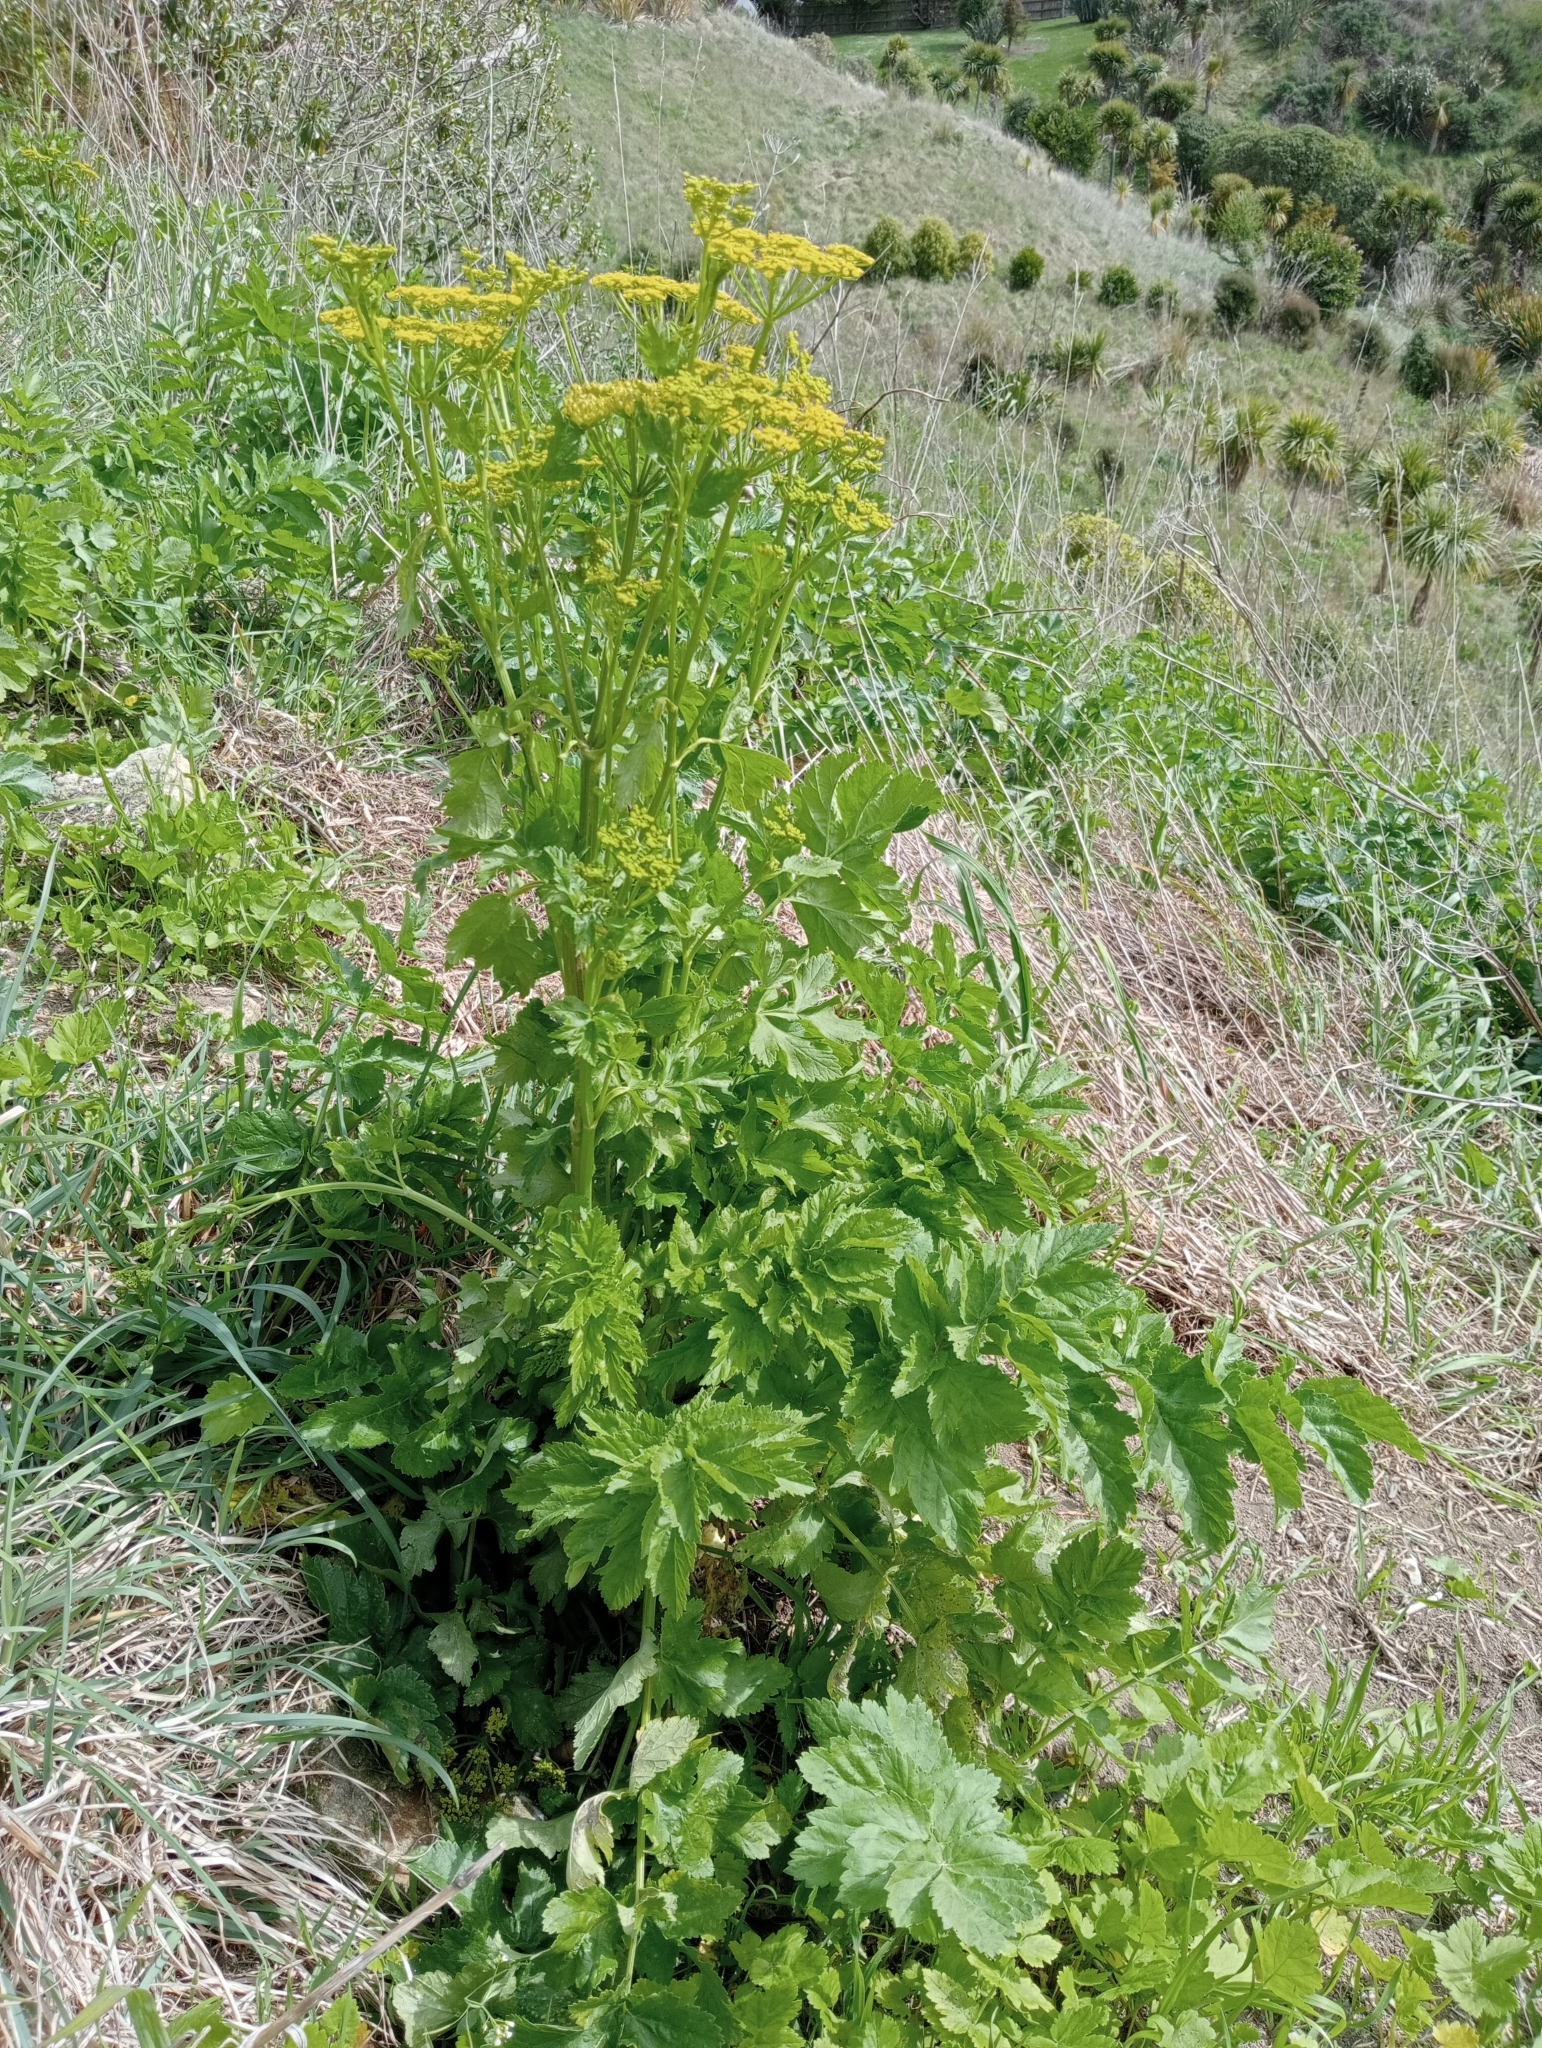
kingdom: Plantae
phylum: Tracheophyta
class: Magnoliopsida
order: Apiales
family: Apiaceae
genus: Pastinaca
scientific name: Pastinaca sativa
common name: Wild parsnip
